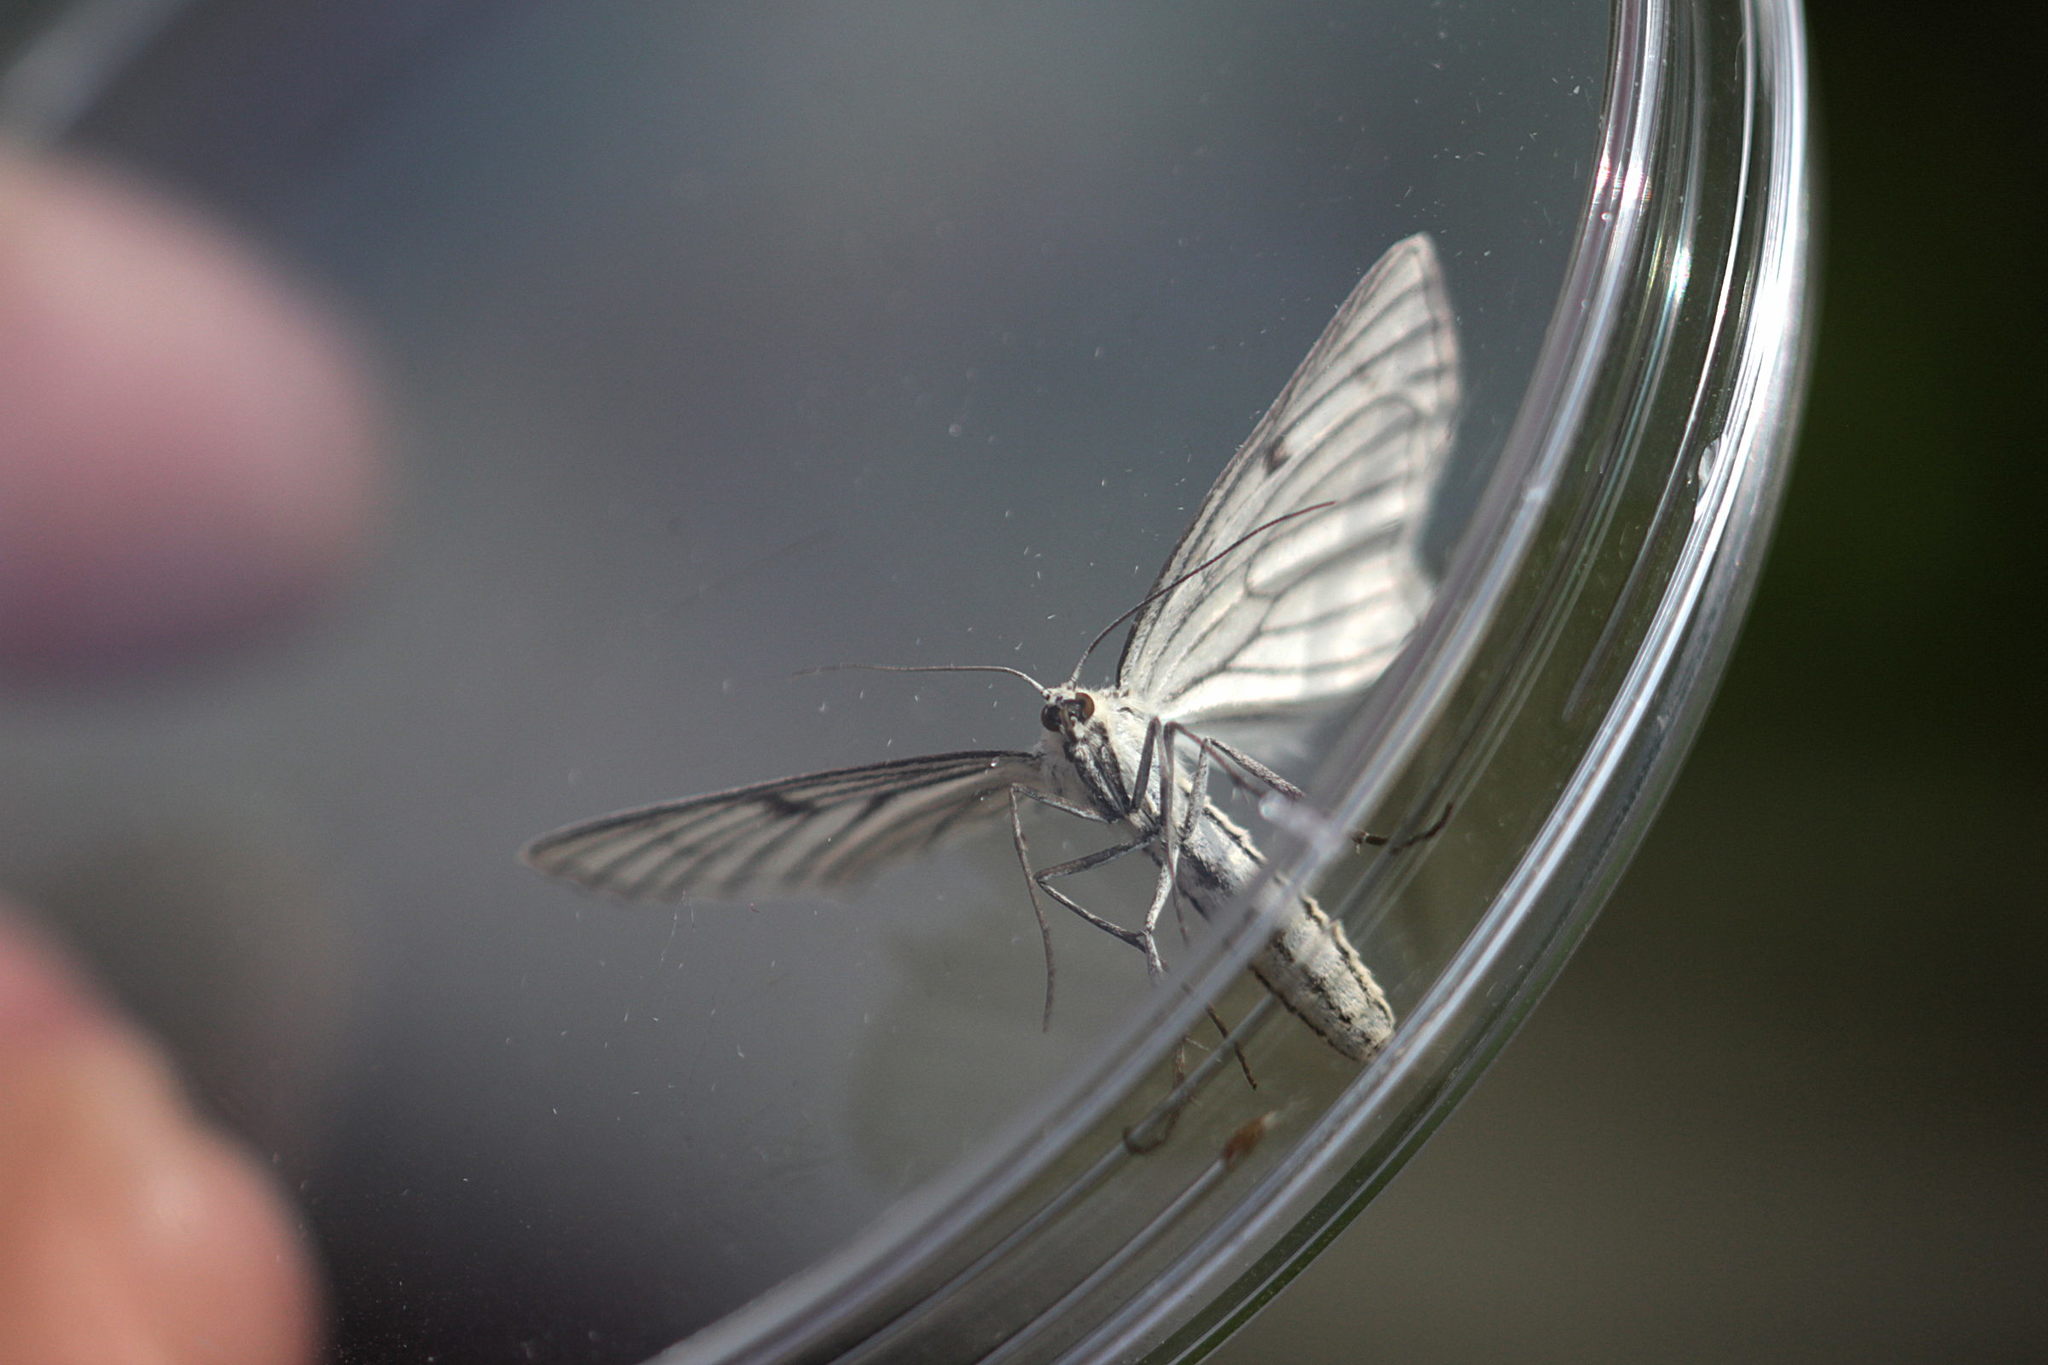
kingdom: Animalia
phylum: Arthropoda
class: Insecta
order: Lepidoptera
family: Geometridae
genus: Siona
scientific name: Siona lineata
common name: Black-veined moth
